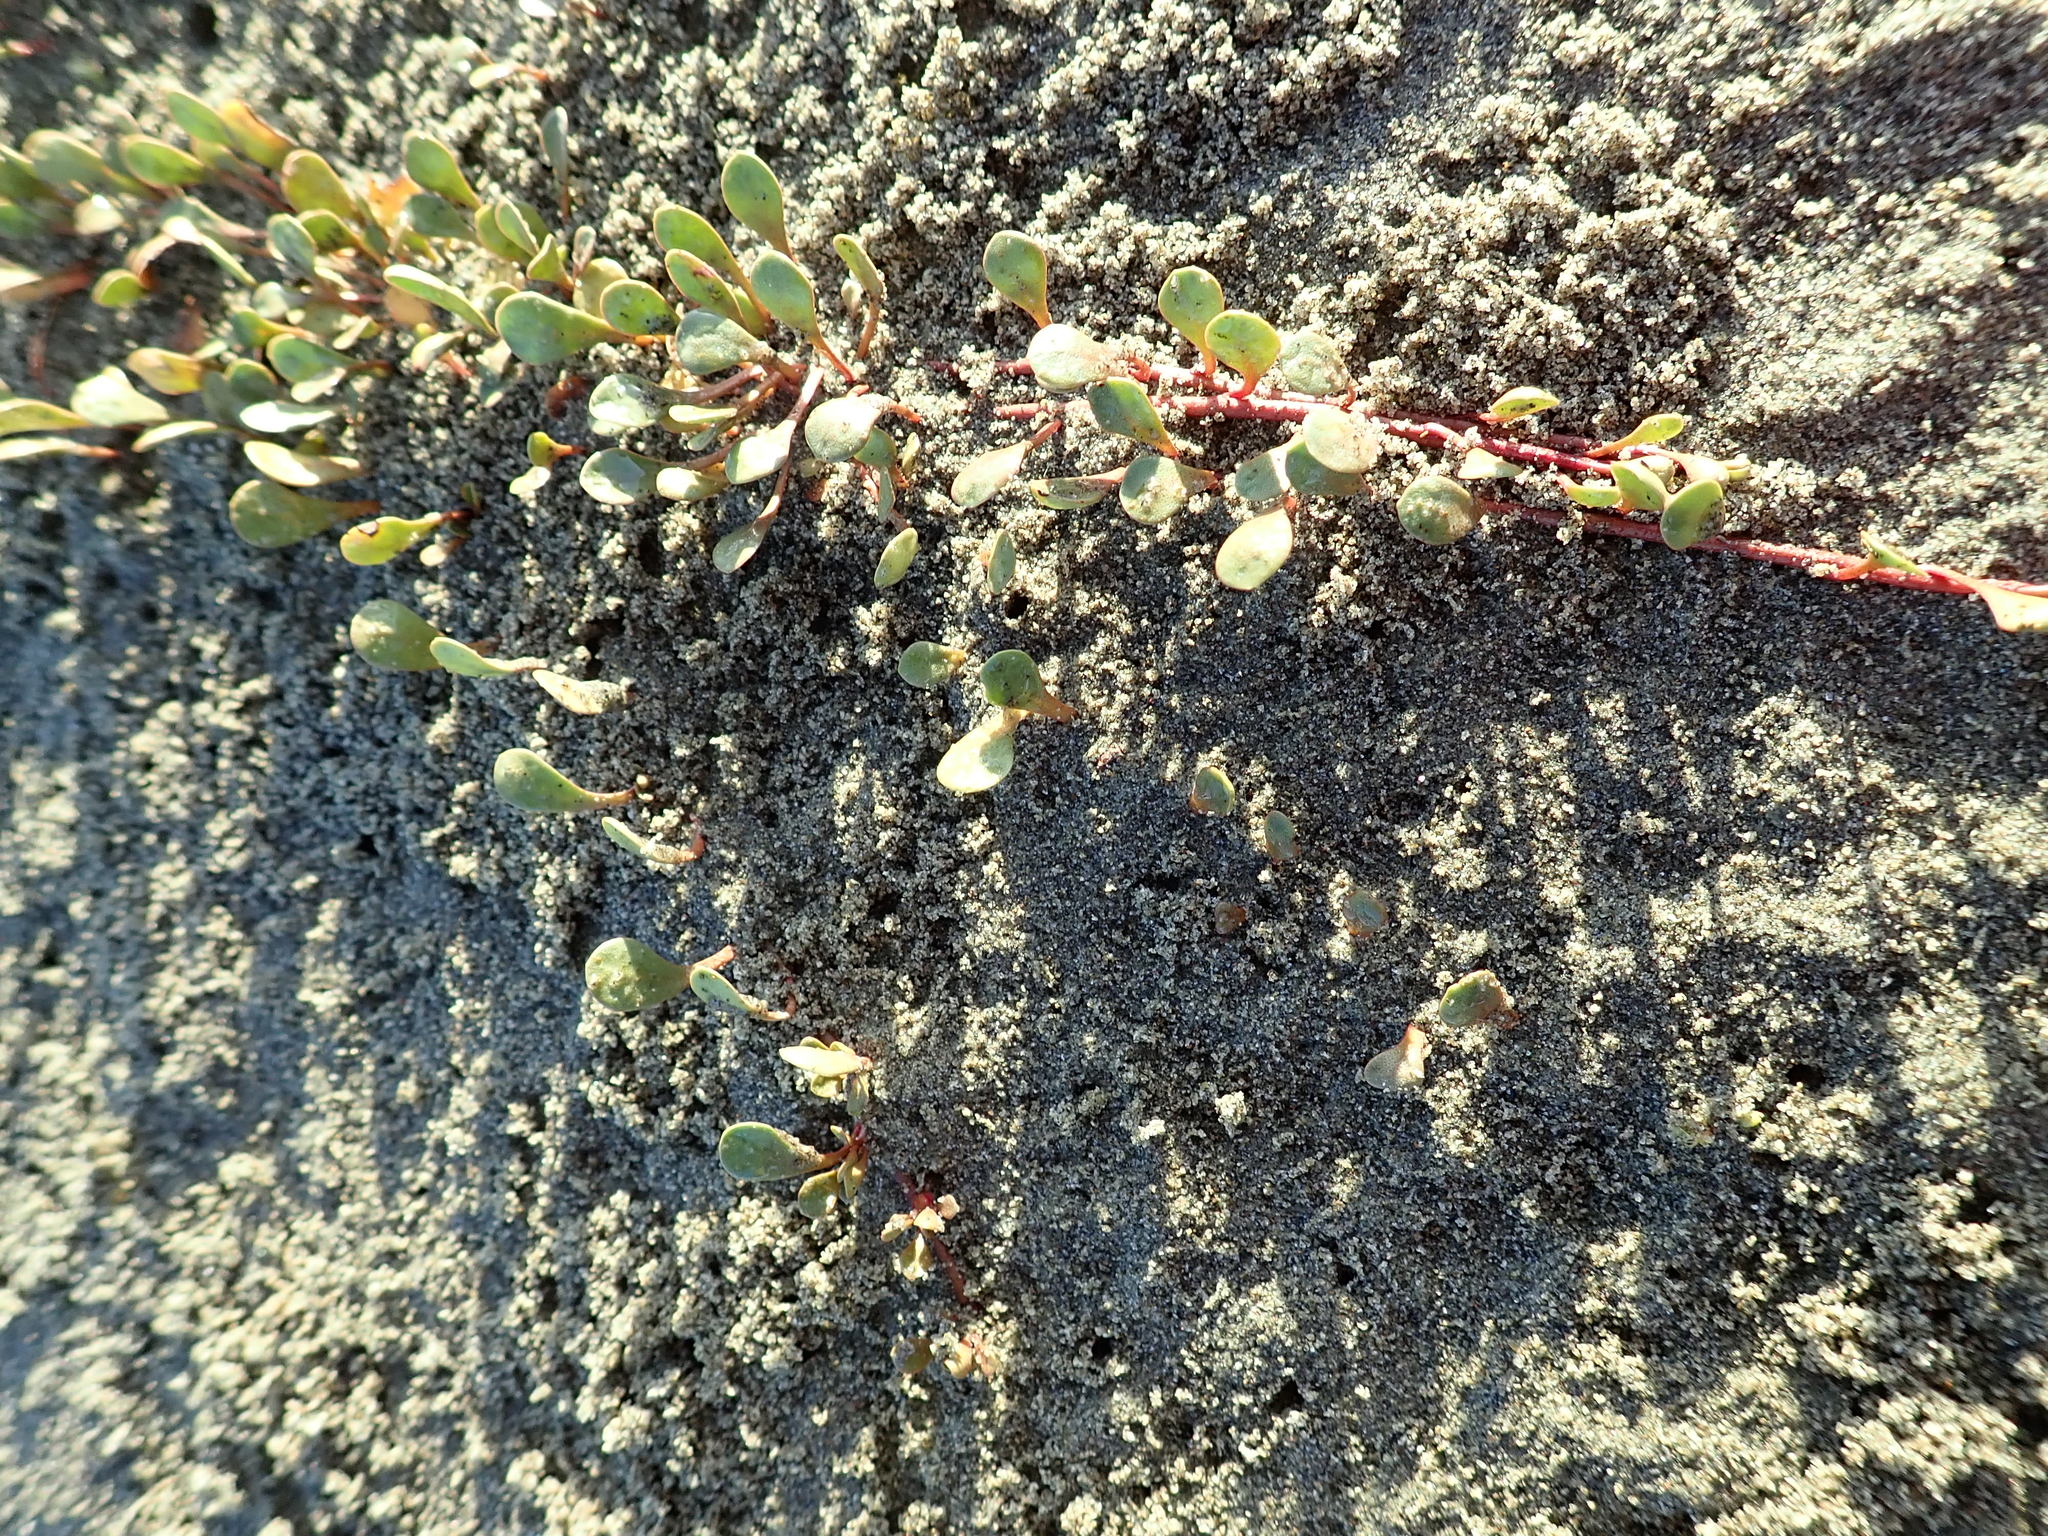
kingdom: Plantae
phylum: Tracheophyta
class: Magnoliopsida
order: Ericales
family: Primulaceae
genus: Samolus
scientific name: Samolus repens
